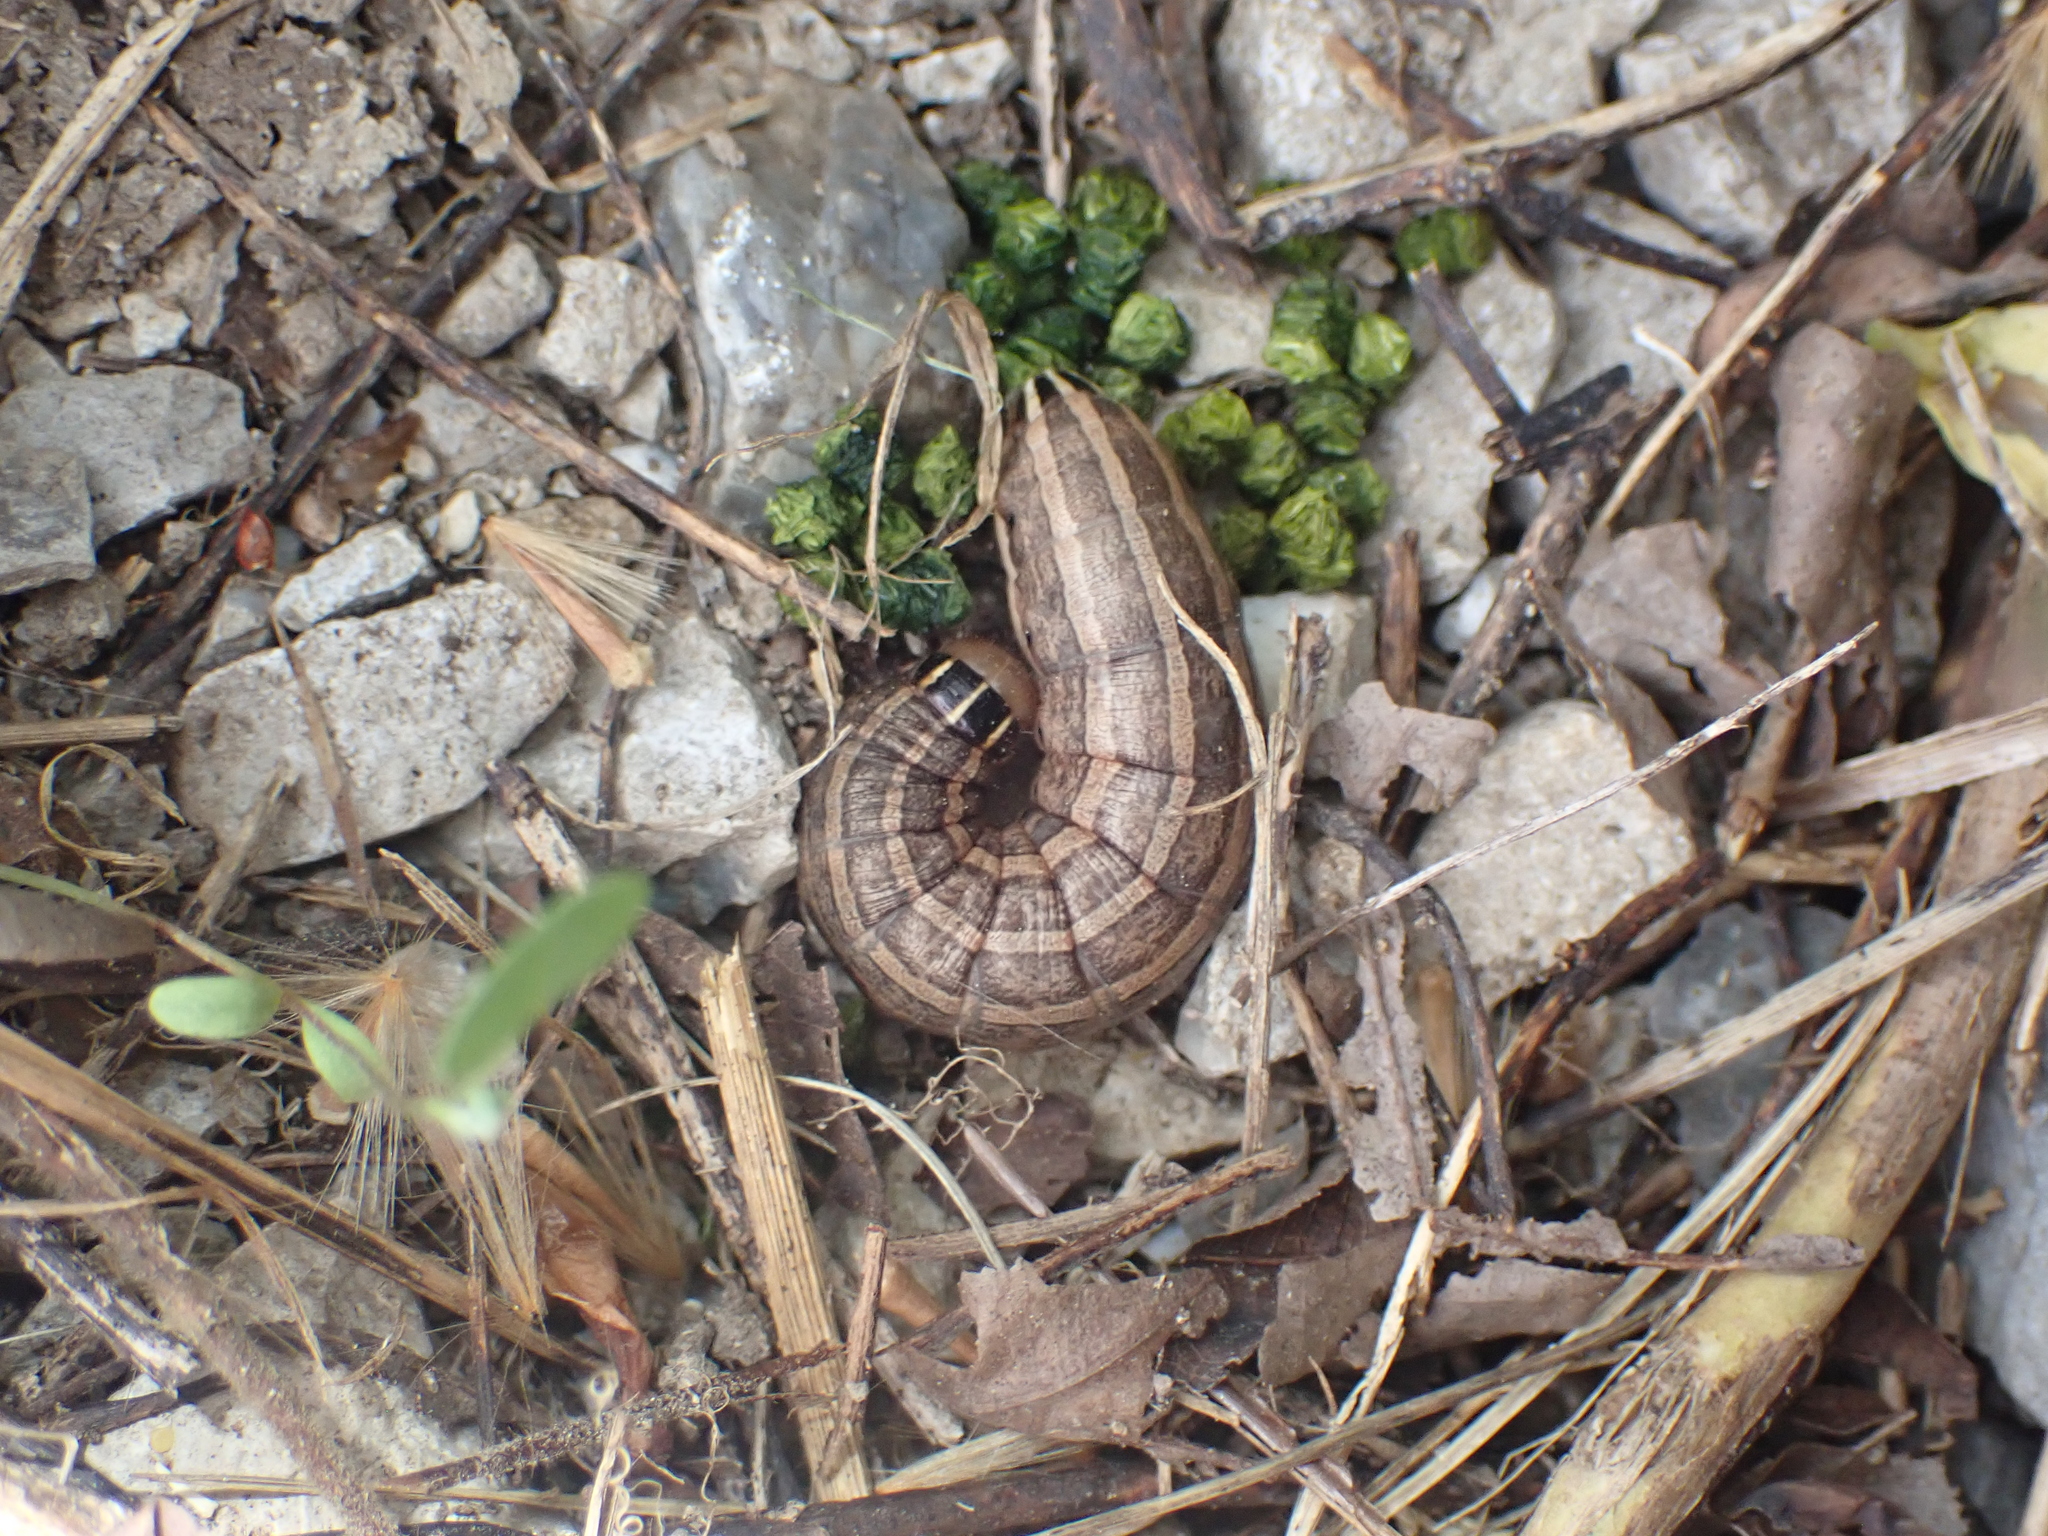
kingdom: Animalia
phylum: Arthropoda
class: Insecta
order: Lepidoptera
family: Noctuidae
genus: Nephelodes
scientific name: Nephelodes minians
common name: Bronzed cutworm
